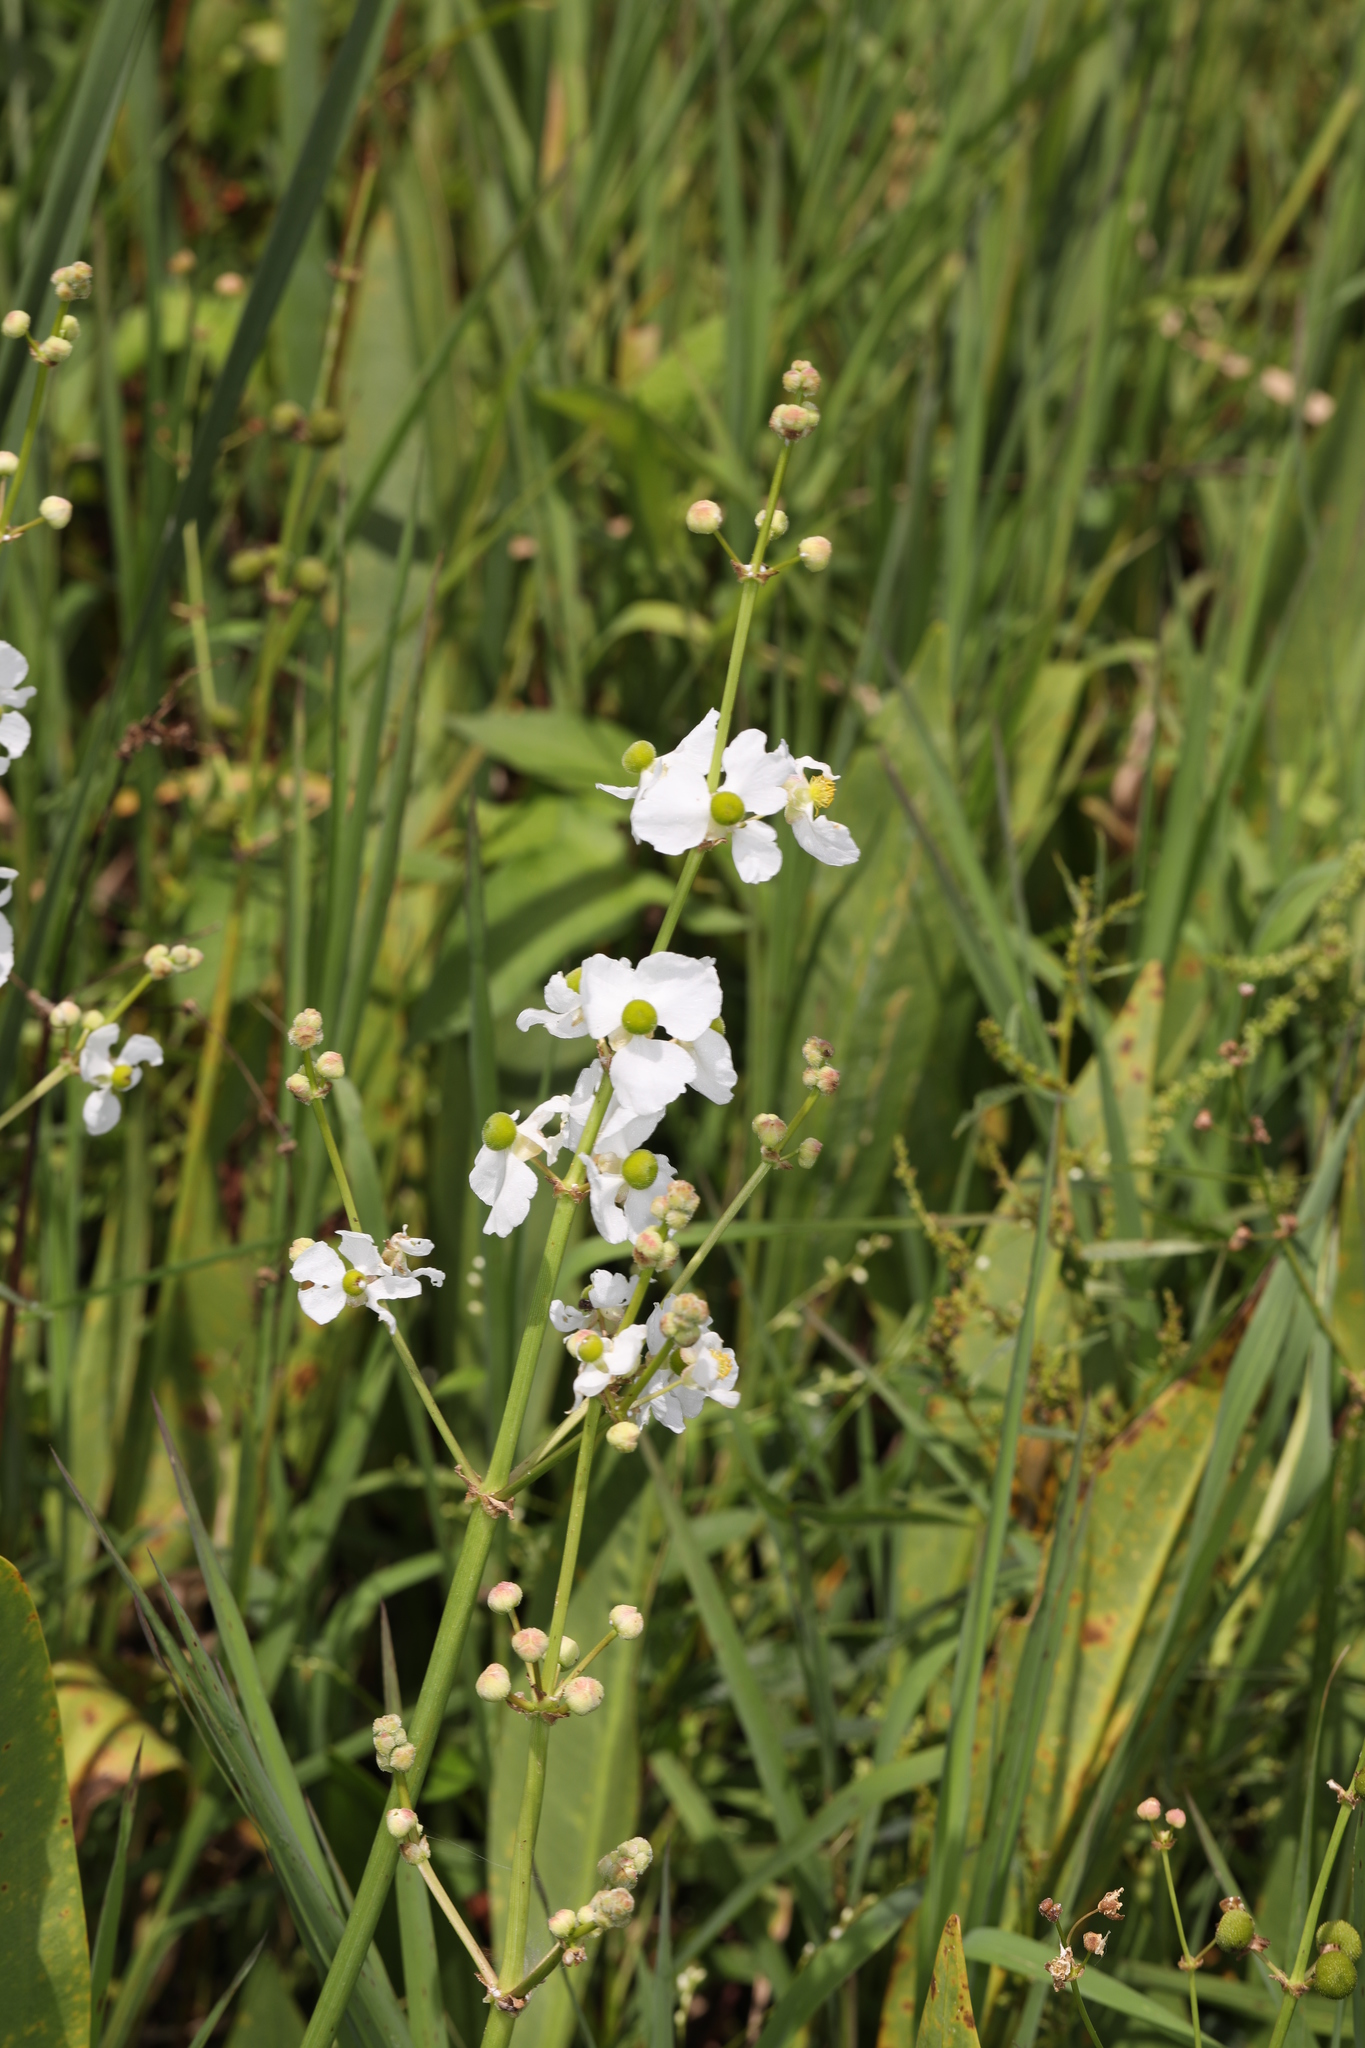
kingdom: Plantae
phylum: Tracheophyta
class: Liliopsida
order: Alismatales
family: Alismataceae
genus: Sagittaria
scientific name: Sagittaria lancifolia
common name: Lance-leaf arrowhead
